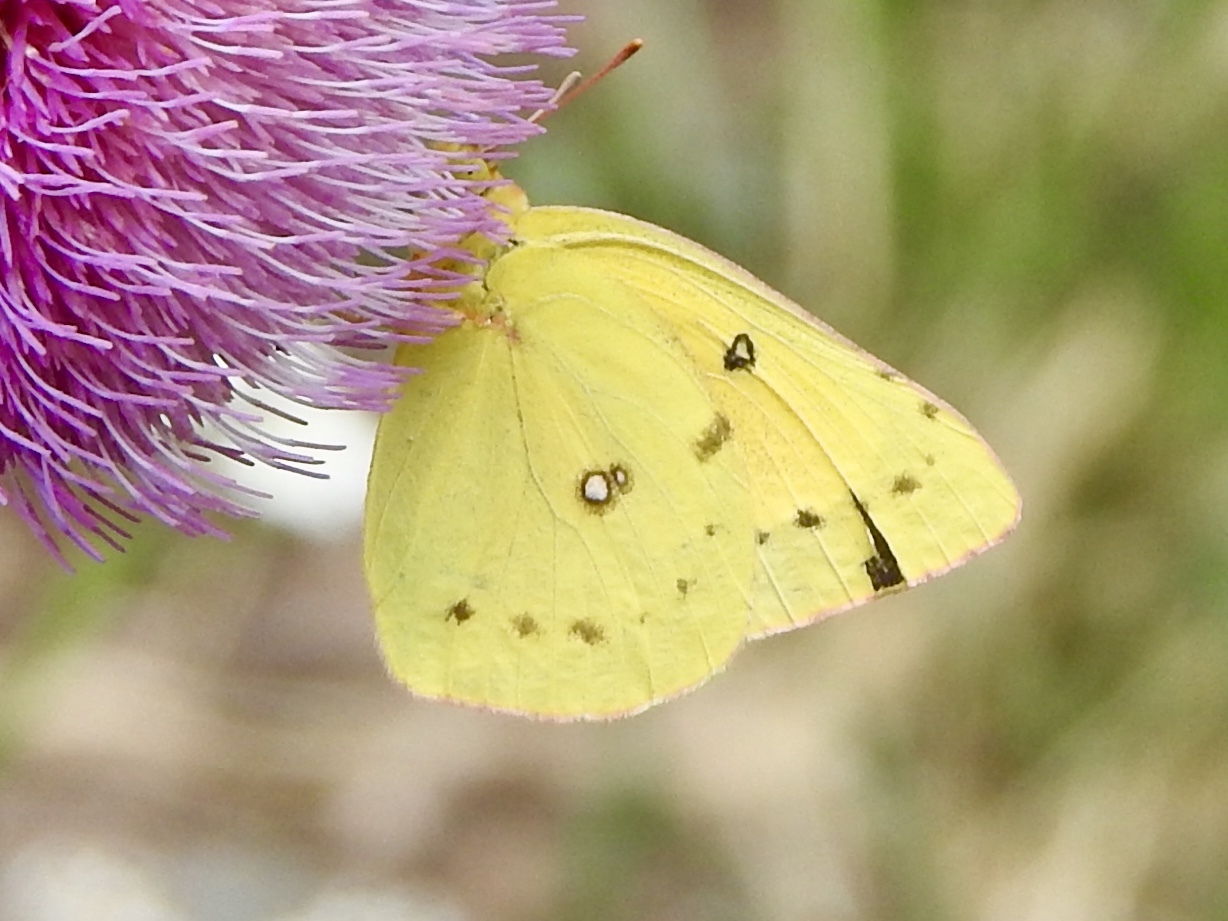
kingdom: Animalia
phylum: Arthropoda
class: Insecta
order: Lepidoptera
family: Pieridae
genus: Colias
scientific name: Colias eurytheme
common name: Alfalfa butterfly
